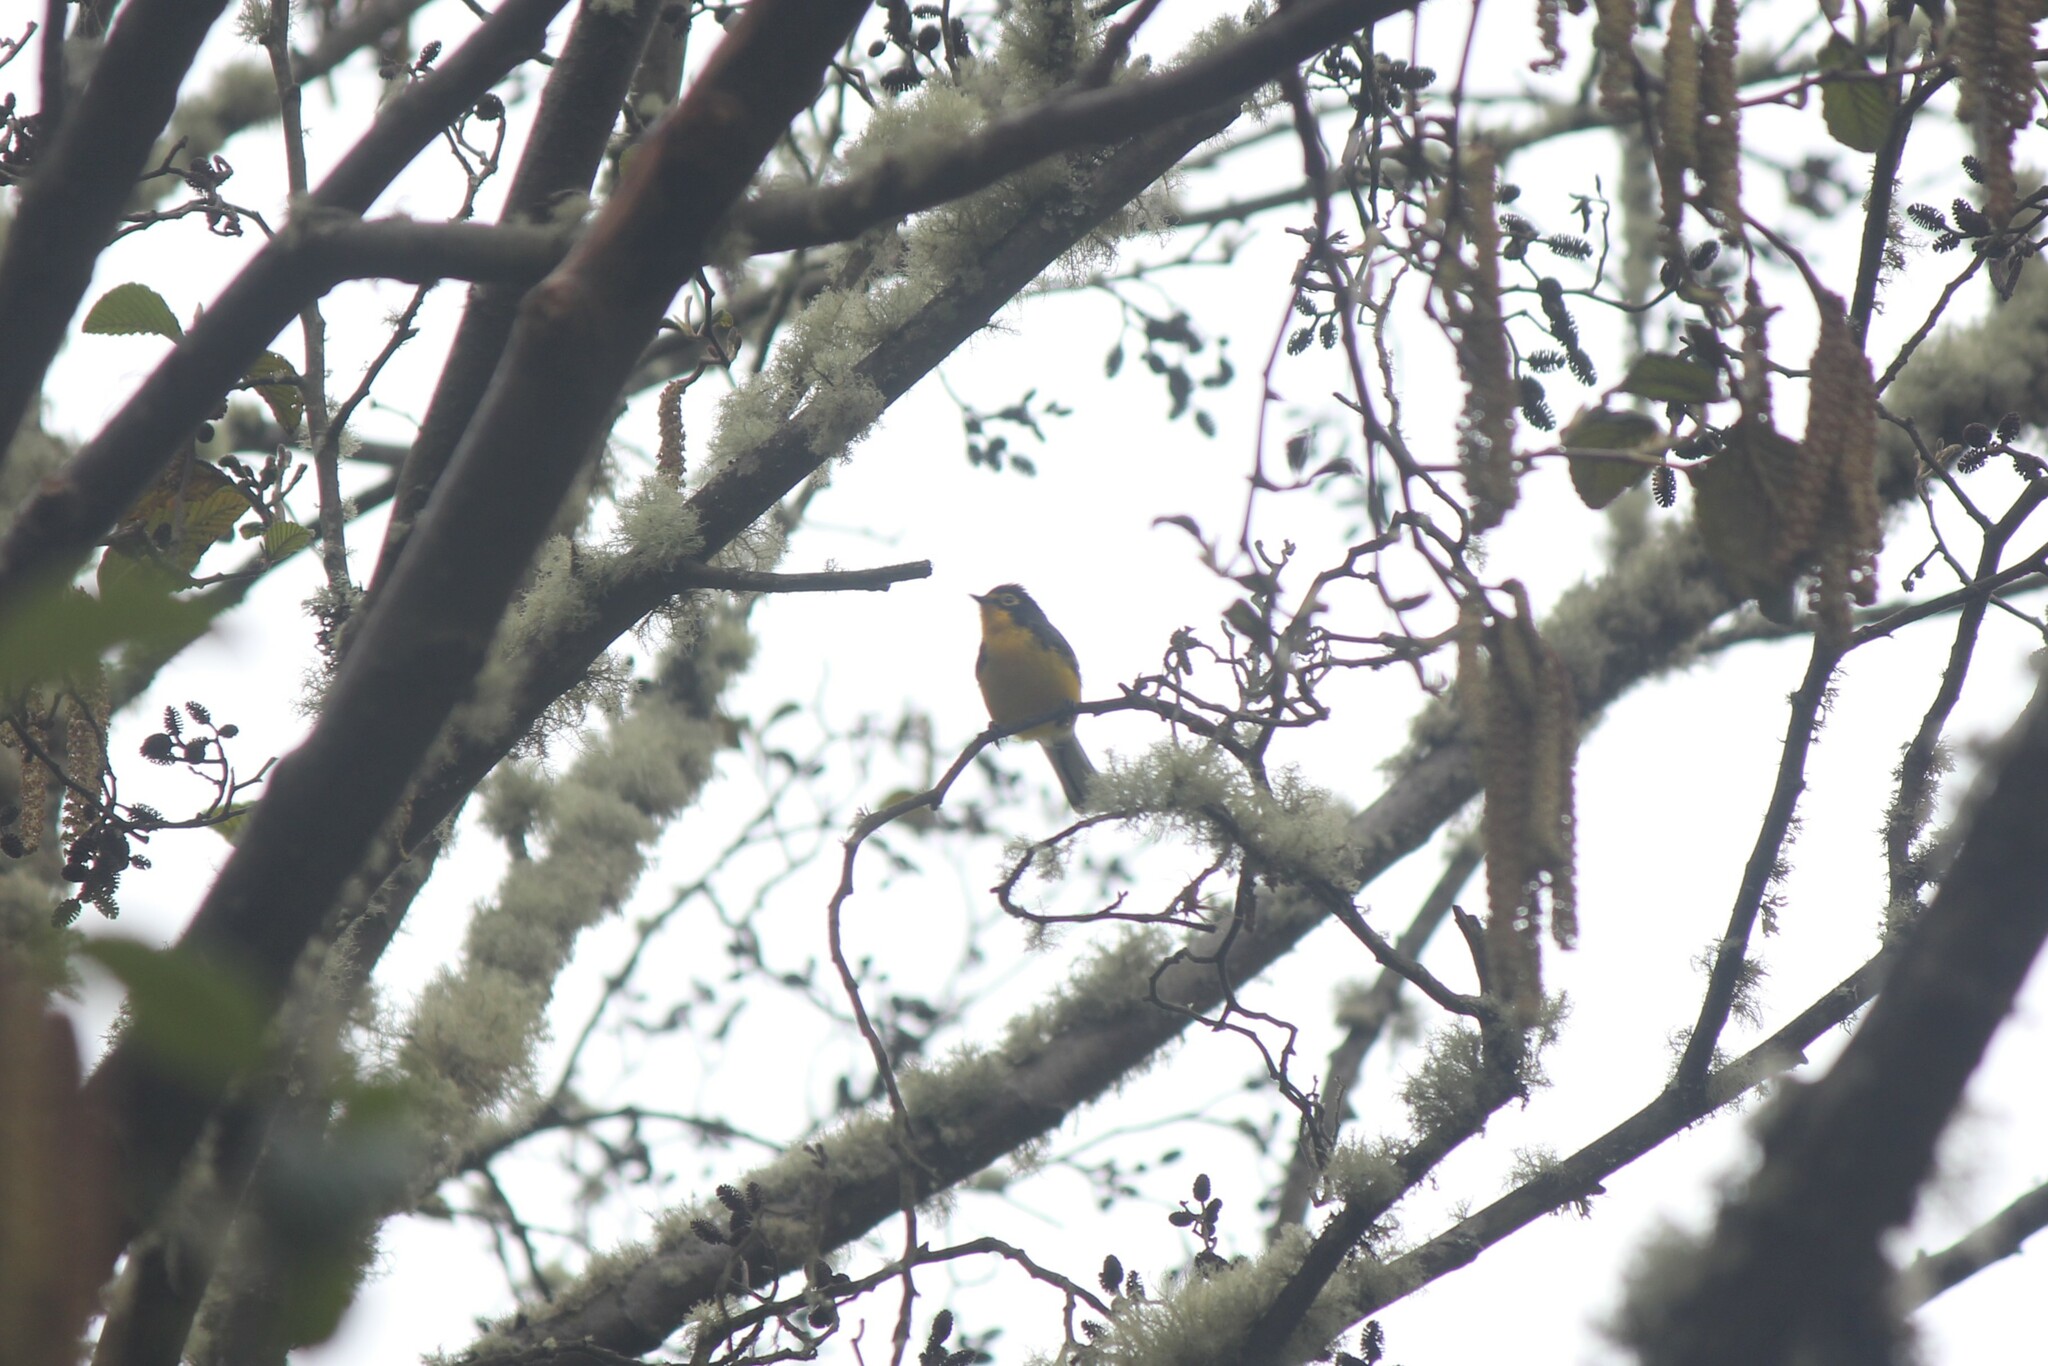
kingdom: Animalia
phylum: Chordata
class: Aves
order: Passeriformes
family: Parulidae
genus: Myioborus
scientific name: Myioborus melanocephalus
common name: Spectacled whitestart
